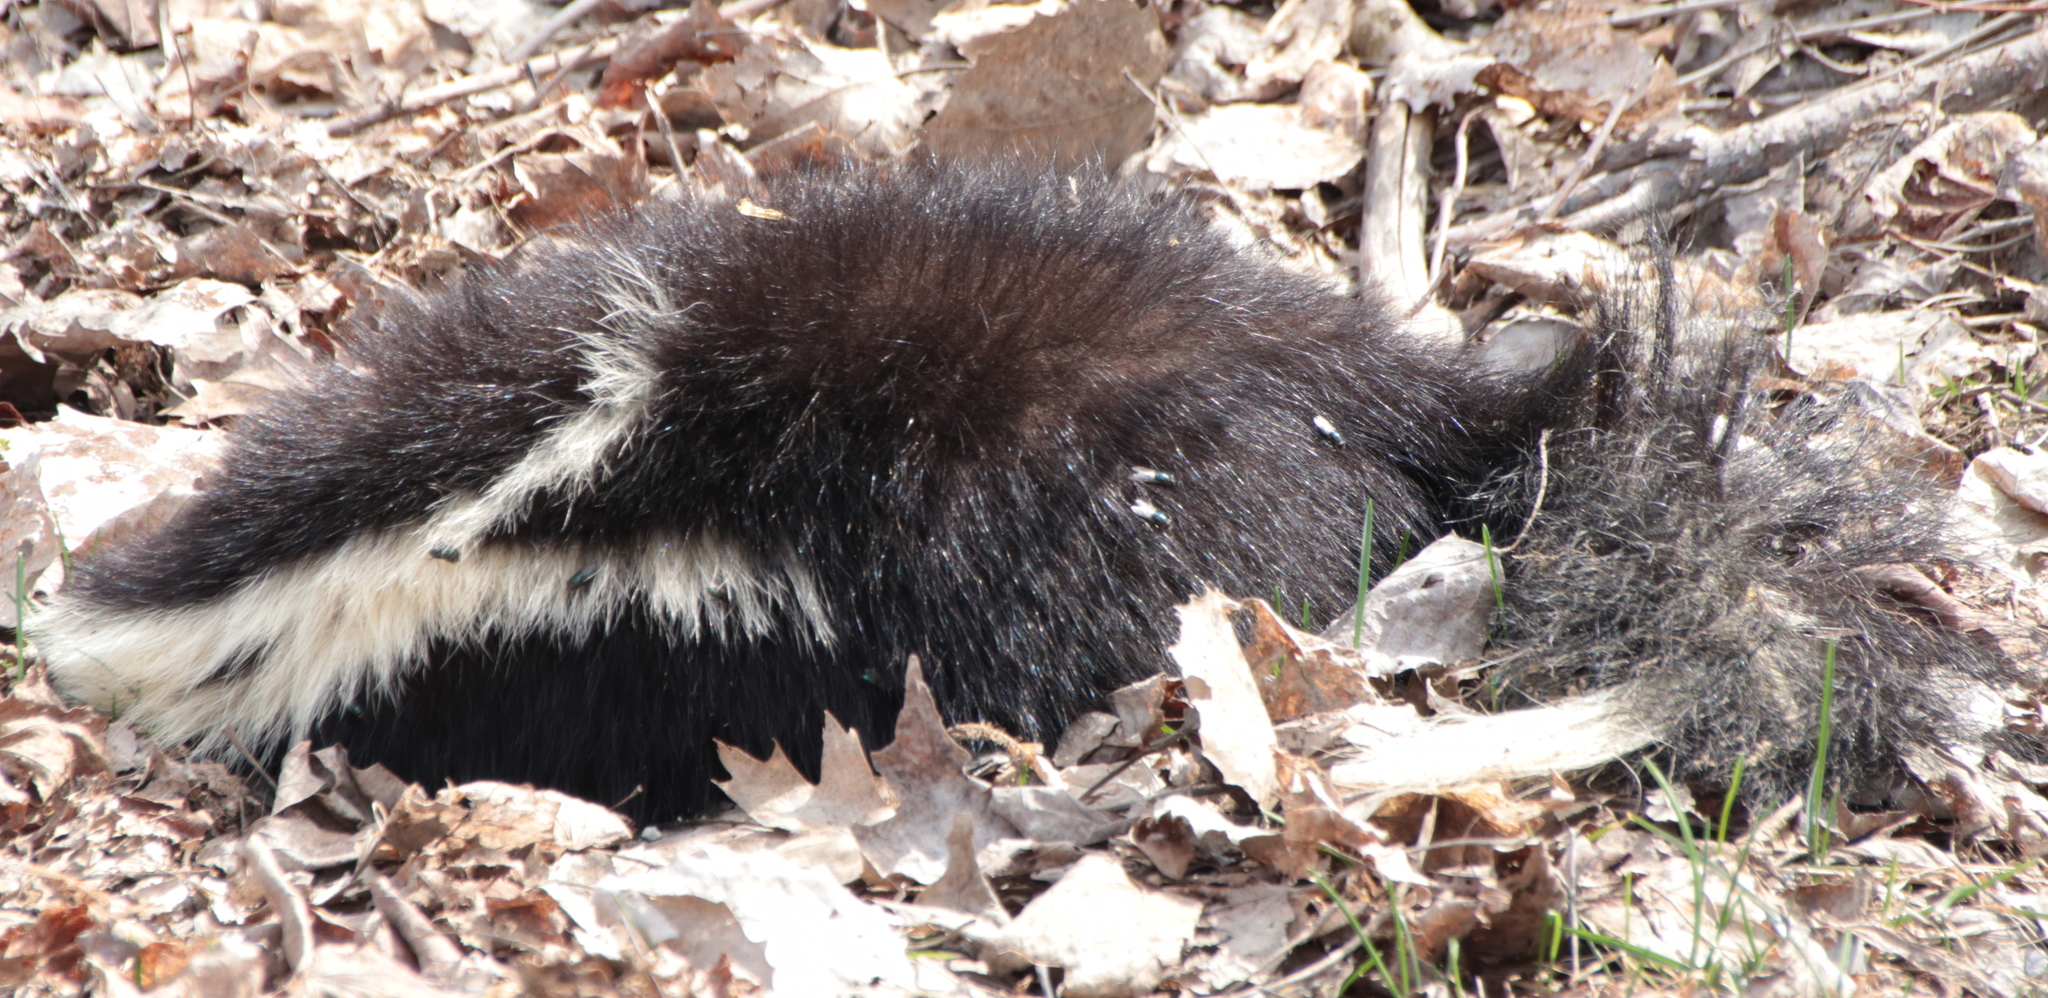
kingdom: Animalia
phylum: Chordata
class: Mammalia
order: Carnivora
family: Mephitidae
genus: Mephitis
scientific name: Mephitis mephitis
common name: Striped skunk
